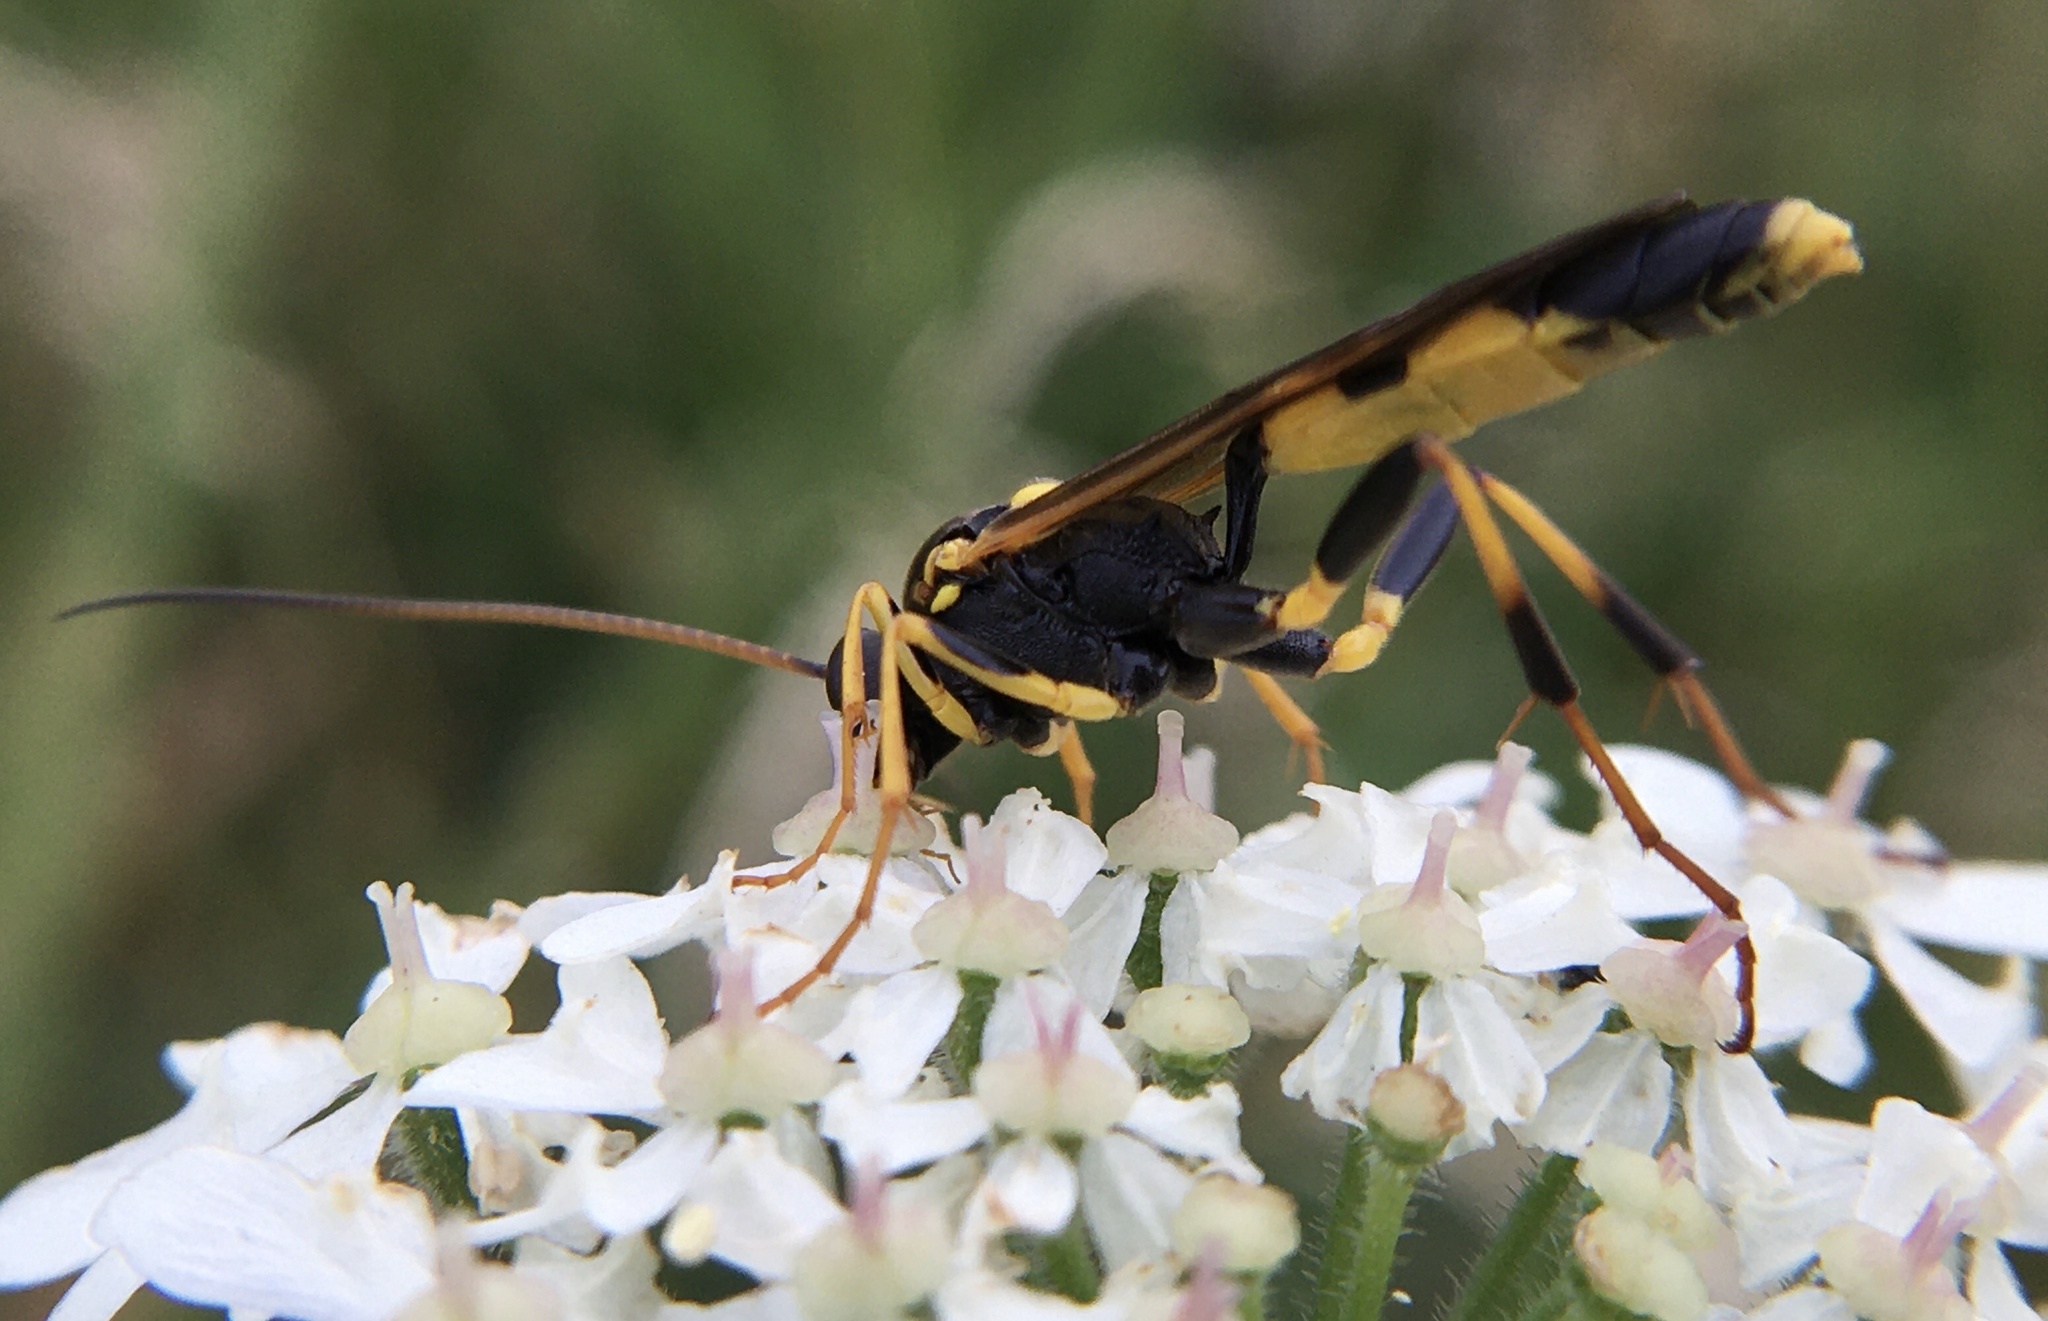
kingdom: Animalia
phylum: Arthropoda
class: Insecta
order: Hymenoptera
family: Ichneumonidae
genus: Amblyteles
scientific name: Amblyteles armatorius
